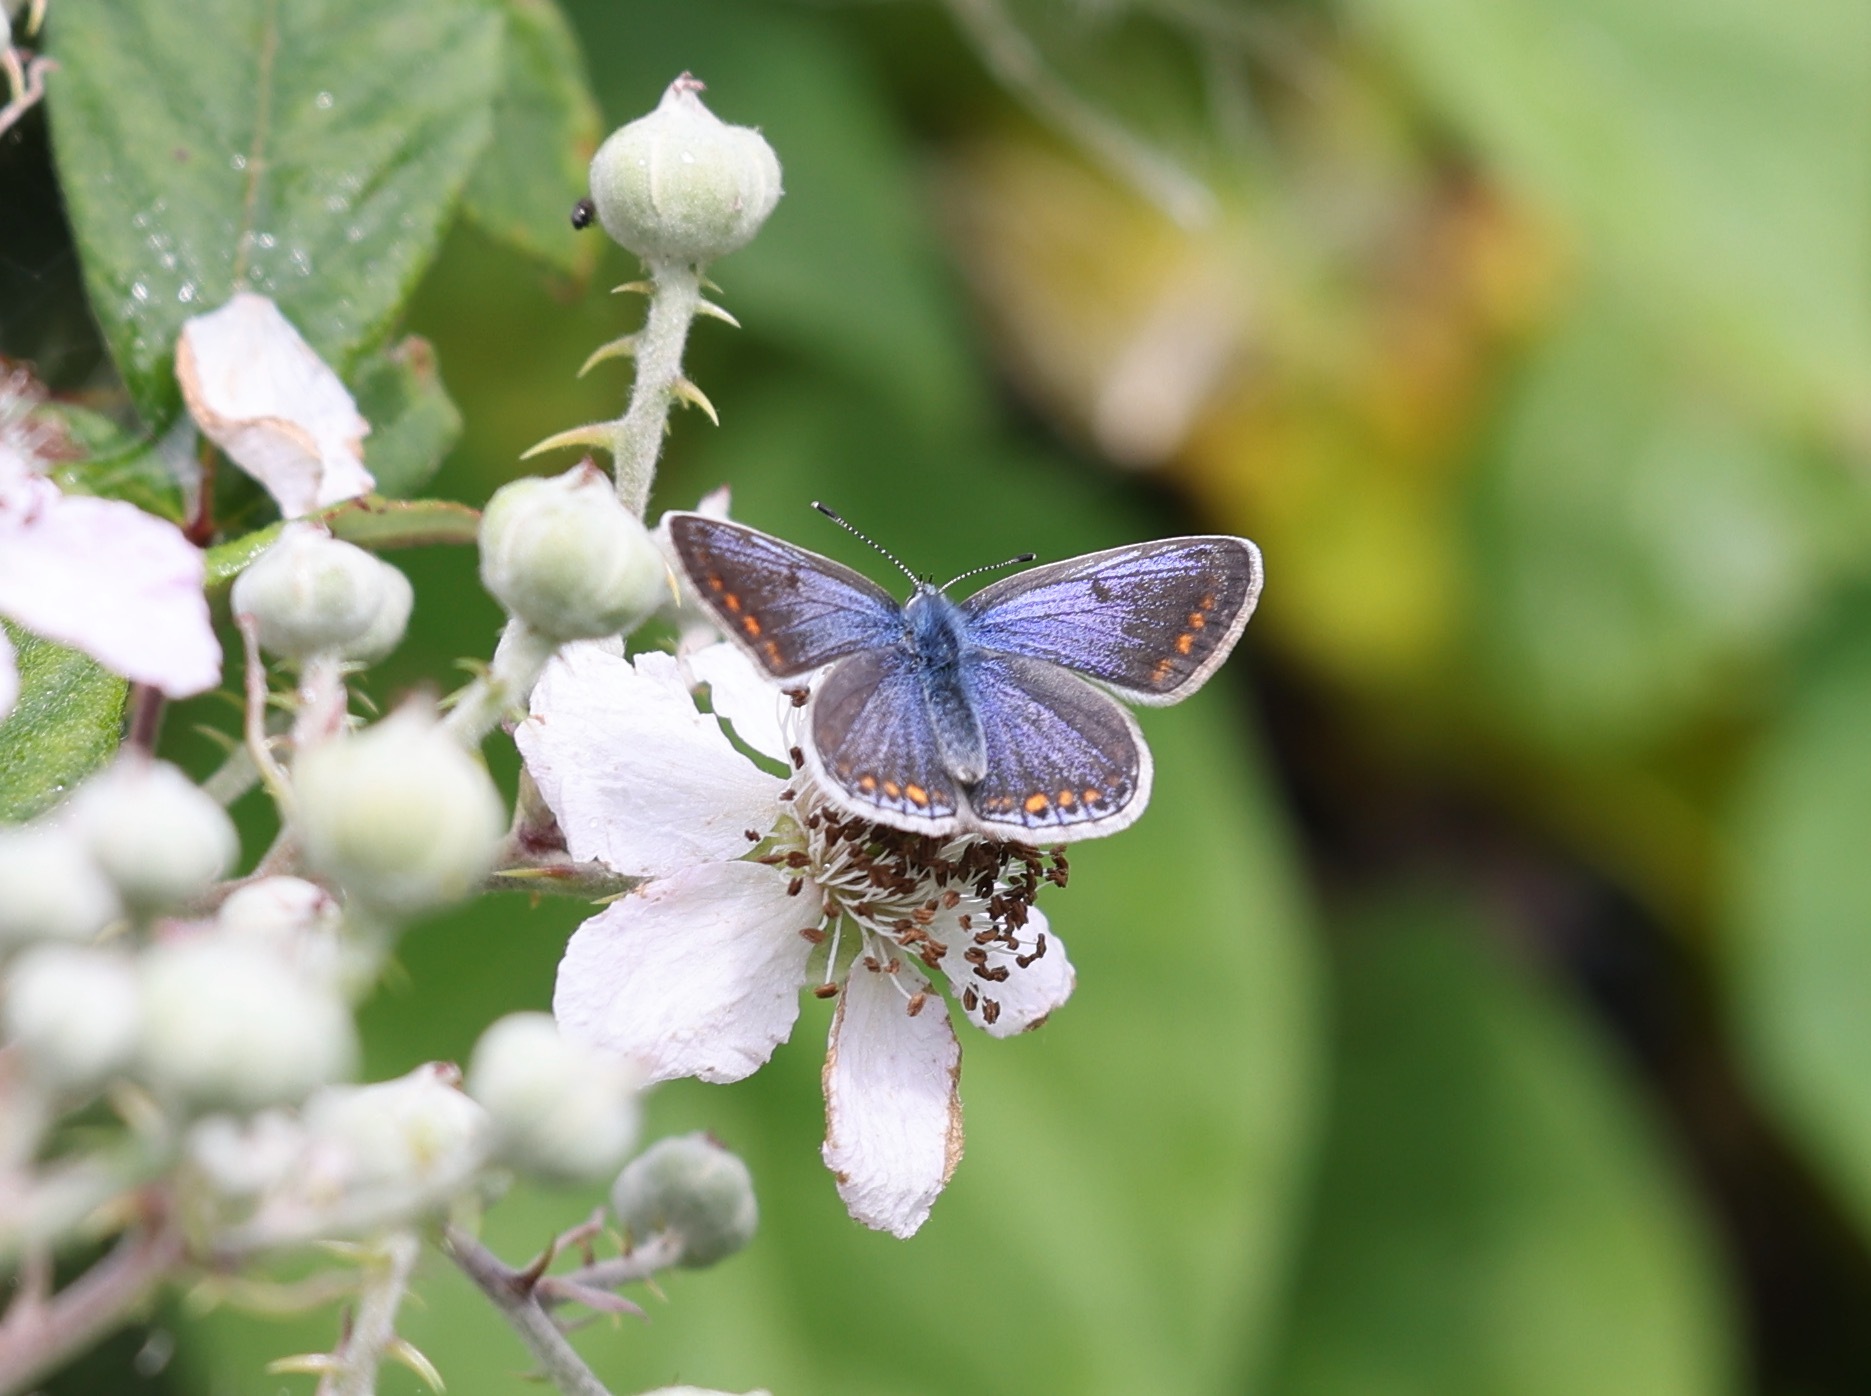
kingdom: Animalia
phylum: Arthropoda
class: Insecta
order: Lepidoptera
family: Lycaenidae
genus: Polyommatus
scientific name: Polyommatus icarus
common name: Common blue
